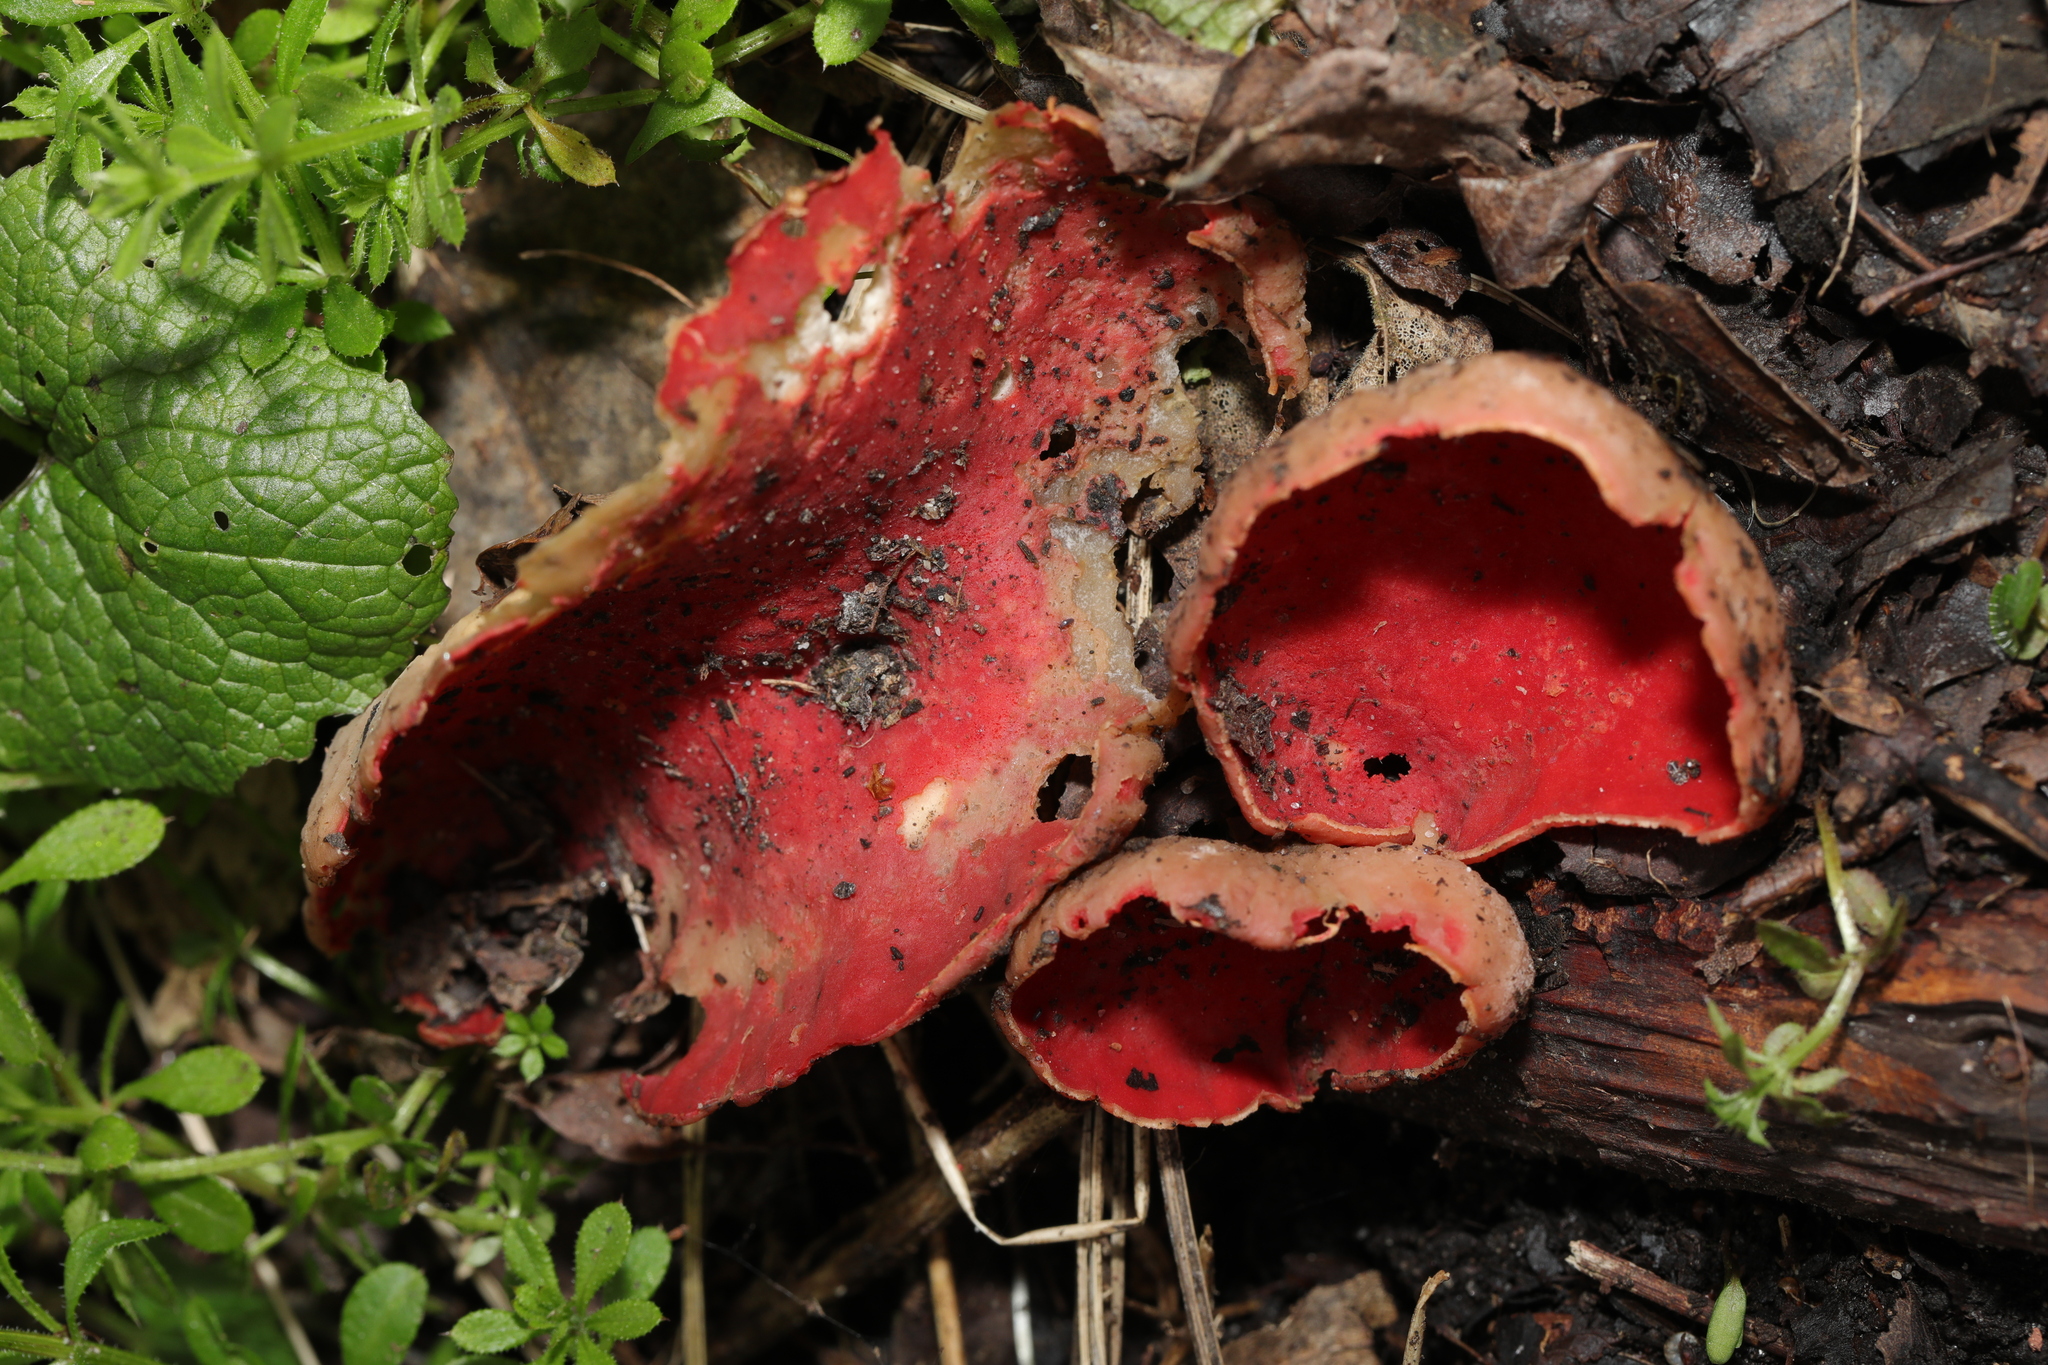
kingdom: Fungi
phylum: Ascomycota
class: Pezizomycetes
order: Pezizales
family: Sarcoscyphaceae
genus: Sarcoscypha
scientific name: Sarcoscypha
